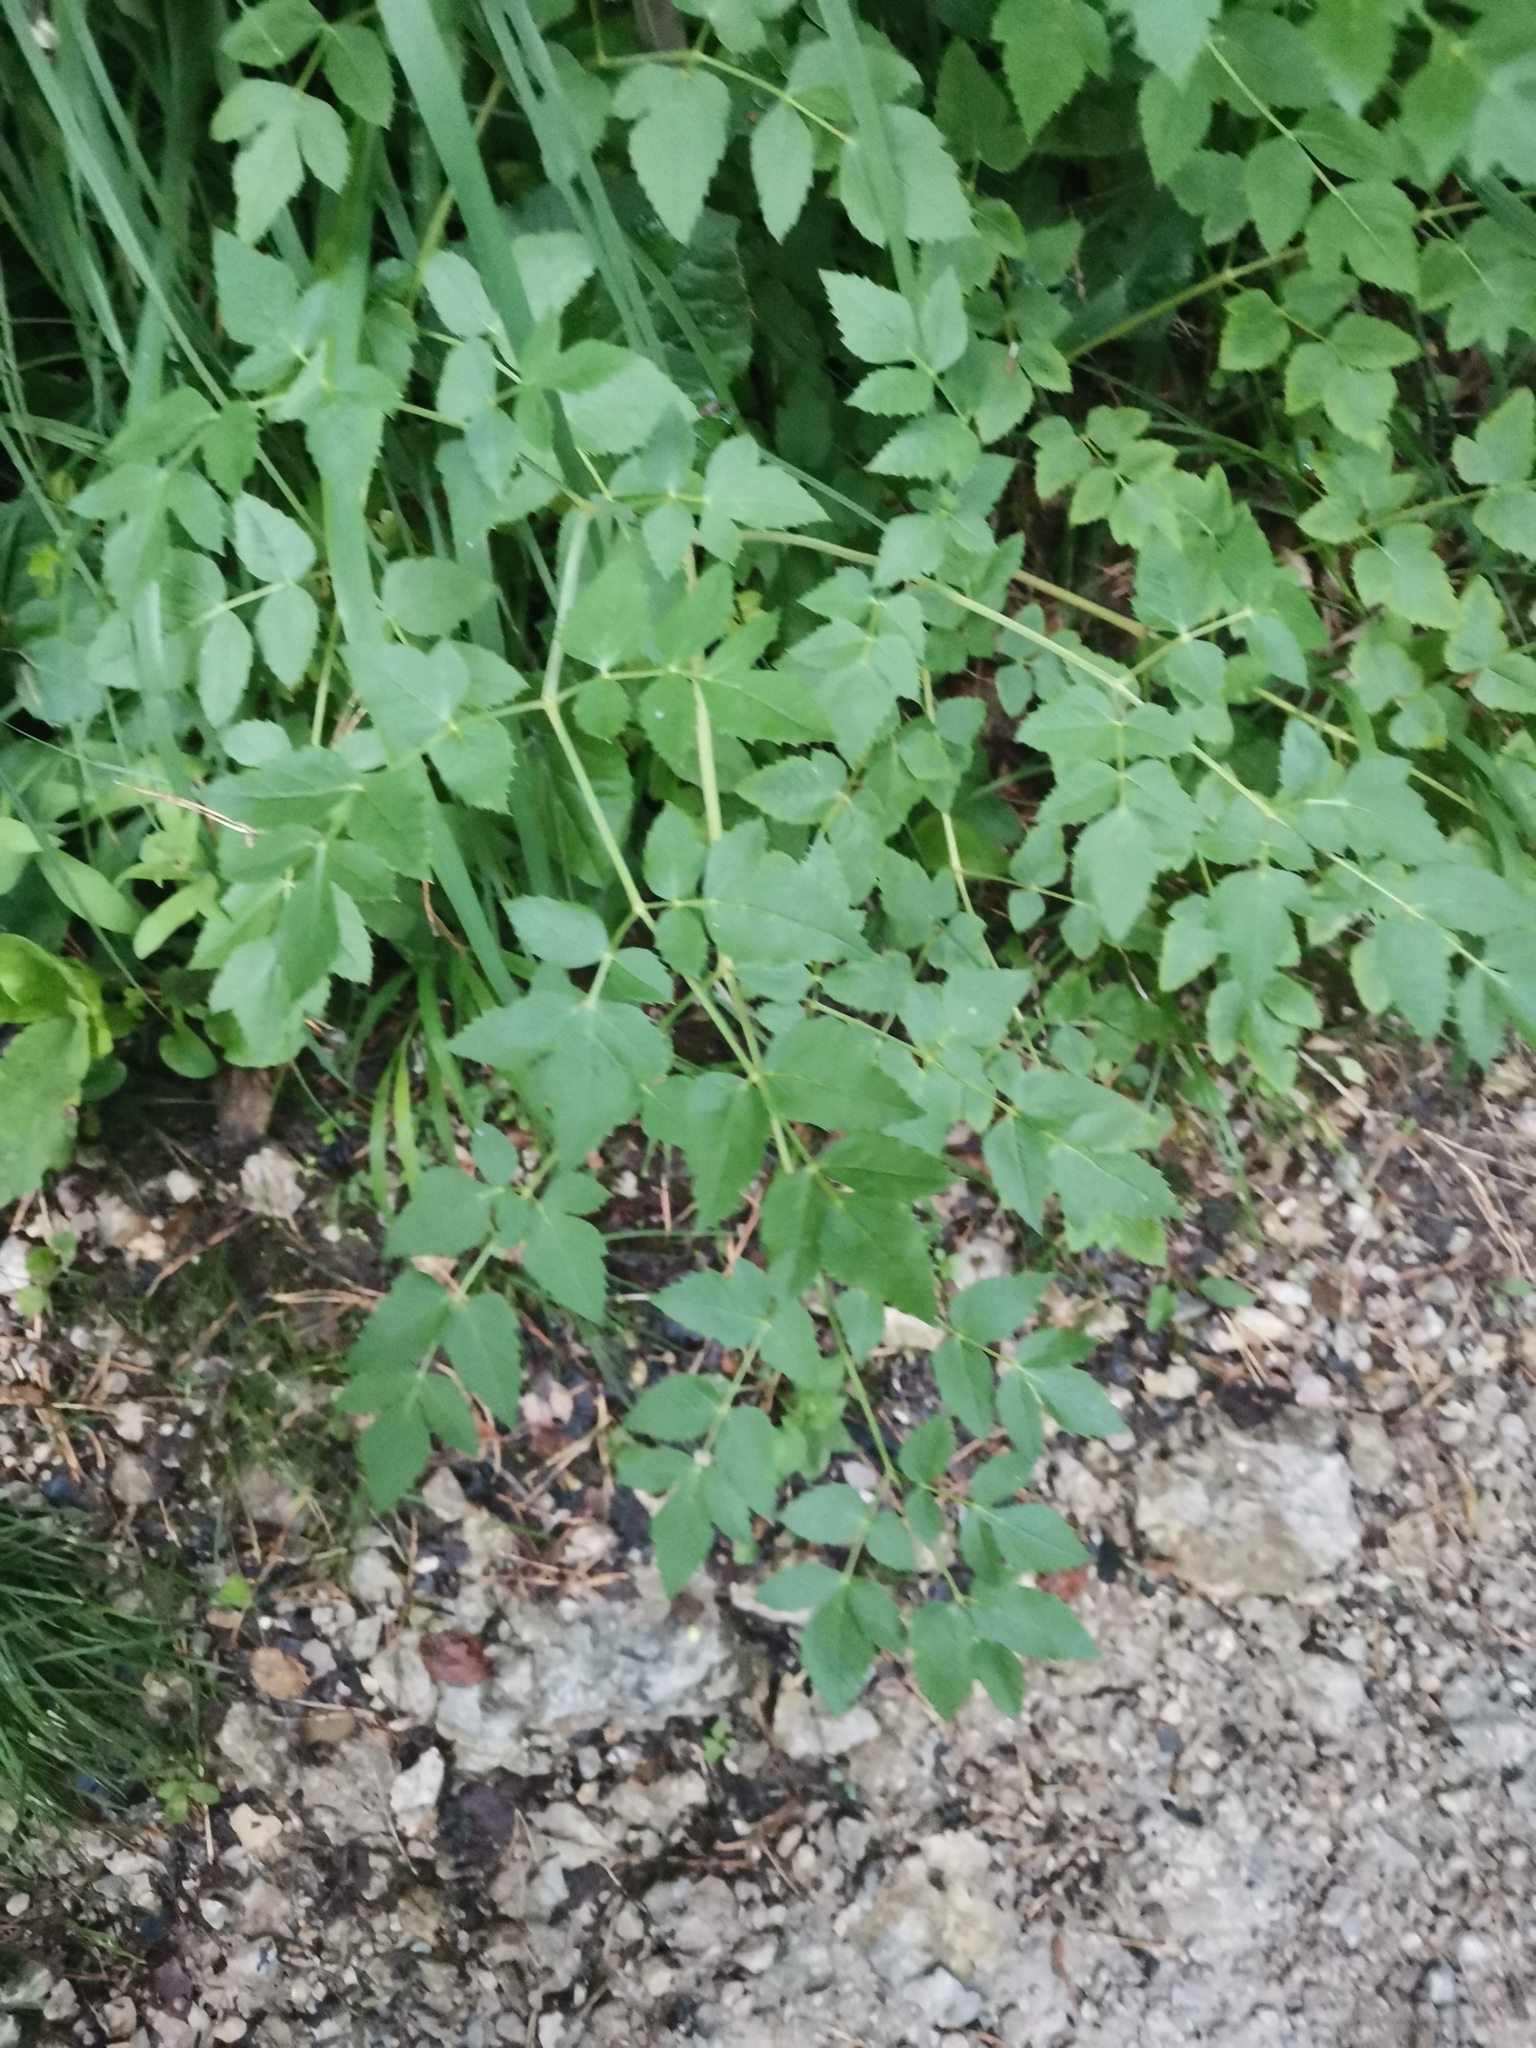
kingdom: Plantae
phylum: Tracheophyta
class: Magnoliopsida
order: Apiales
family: Apiaceae
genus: Peucedanum
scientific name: Peucedanum verticillare
